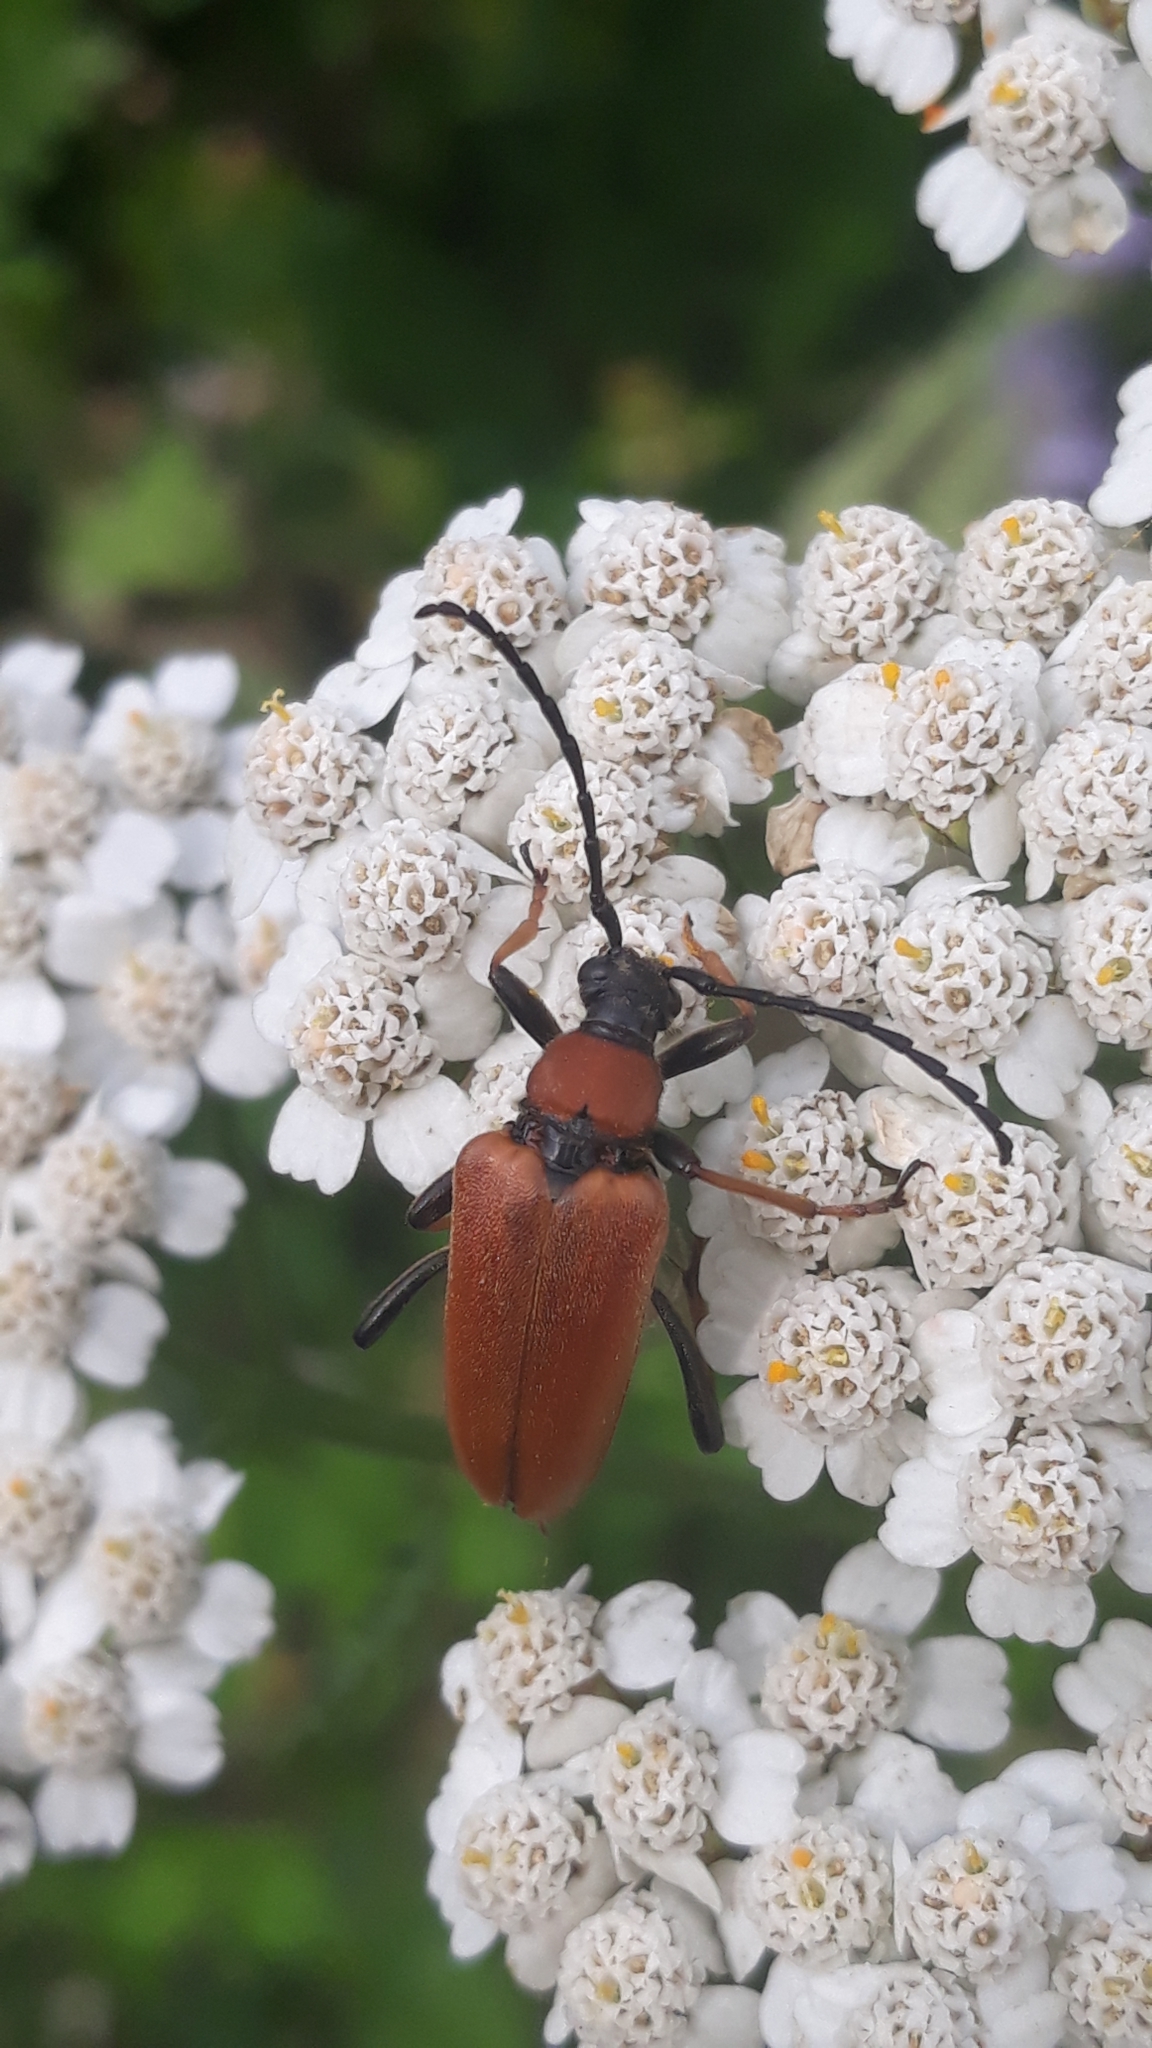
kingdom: Animalia
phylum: Arthropoda
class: Insecta
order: Coleoptera
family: Cerambycidae
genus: Stictoleptura
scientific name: Stictoleptura rubra
